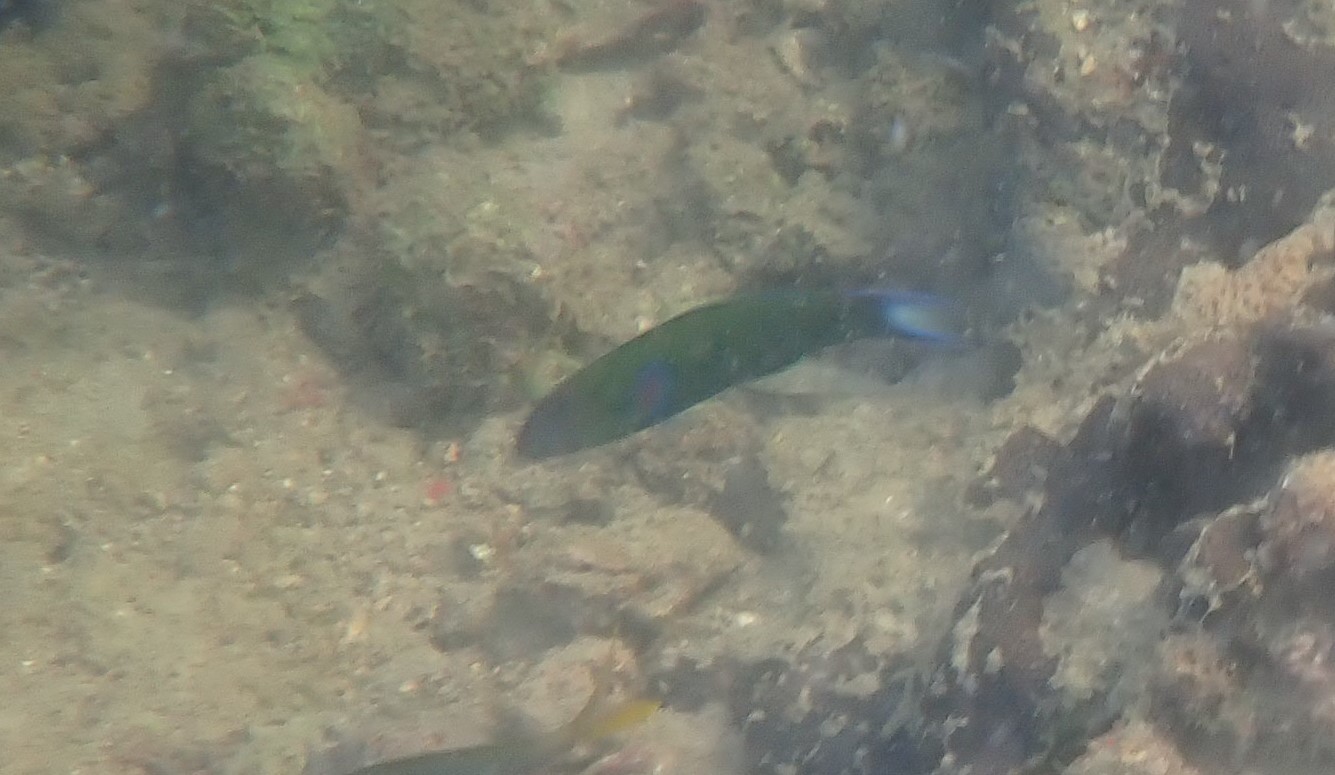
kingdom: Animalia
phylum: Chordata
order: Perciformes
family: Labridae
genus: Thalassoma
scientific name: Thalassoma lunare
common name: Blue wrasse
